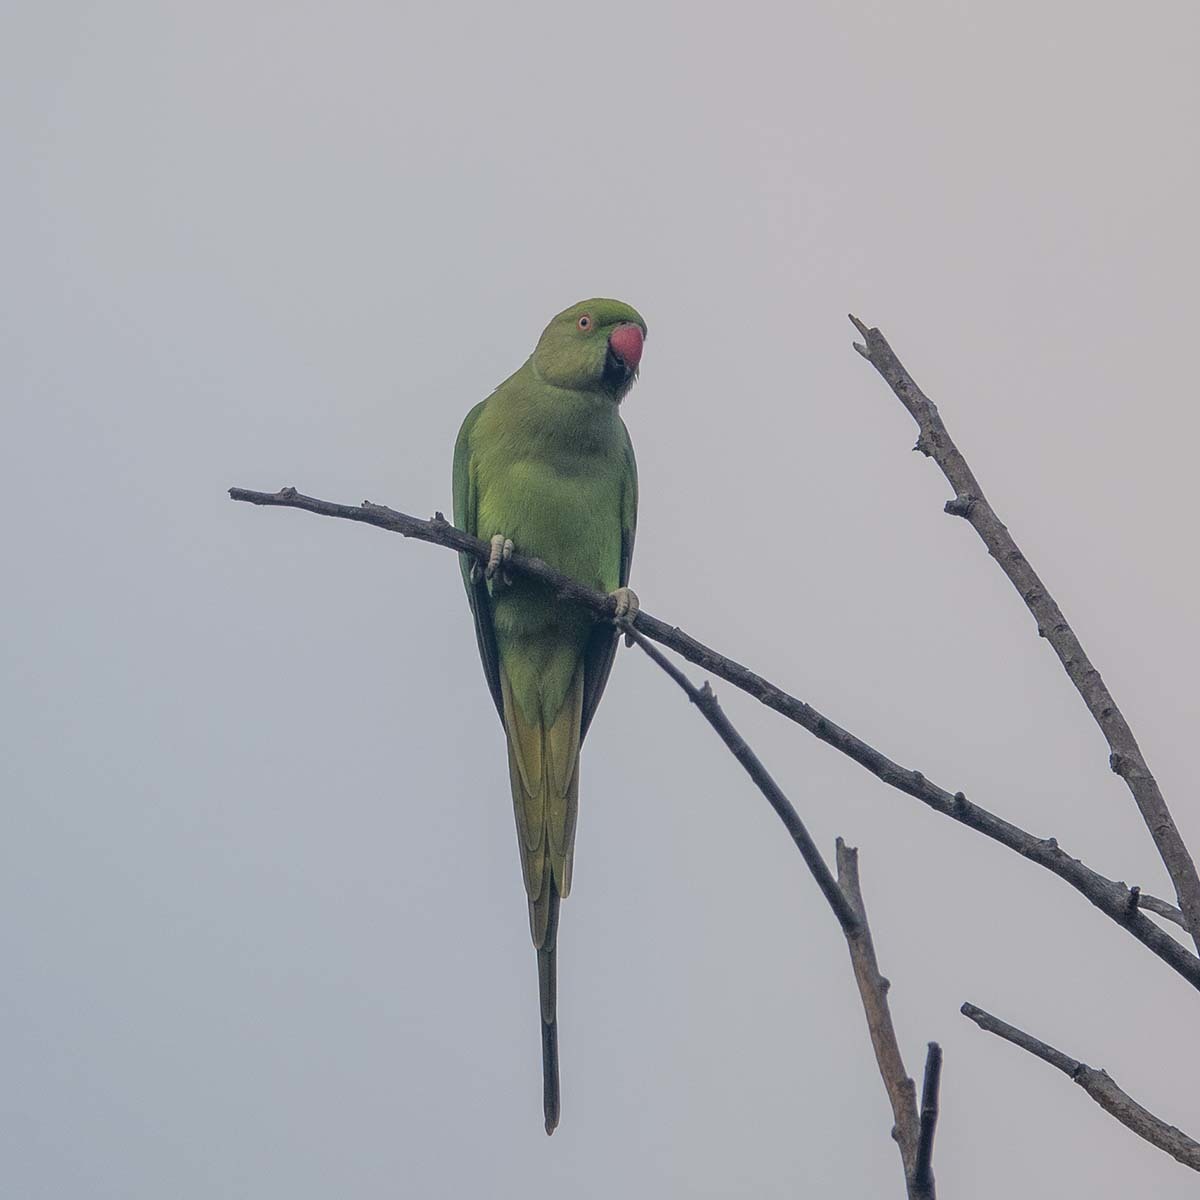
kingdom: Animalia
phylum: Chordata
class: Aves
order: Psittaciformes
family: Psittacidae
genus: Psittacula
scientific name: Psittacula krameri
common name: Rose-ringed parakeet
